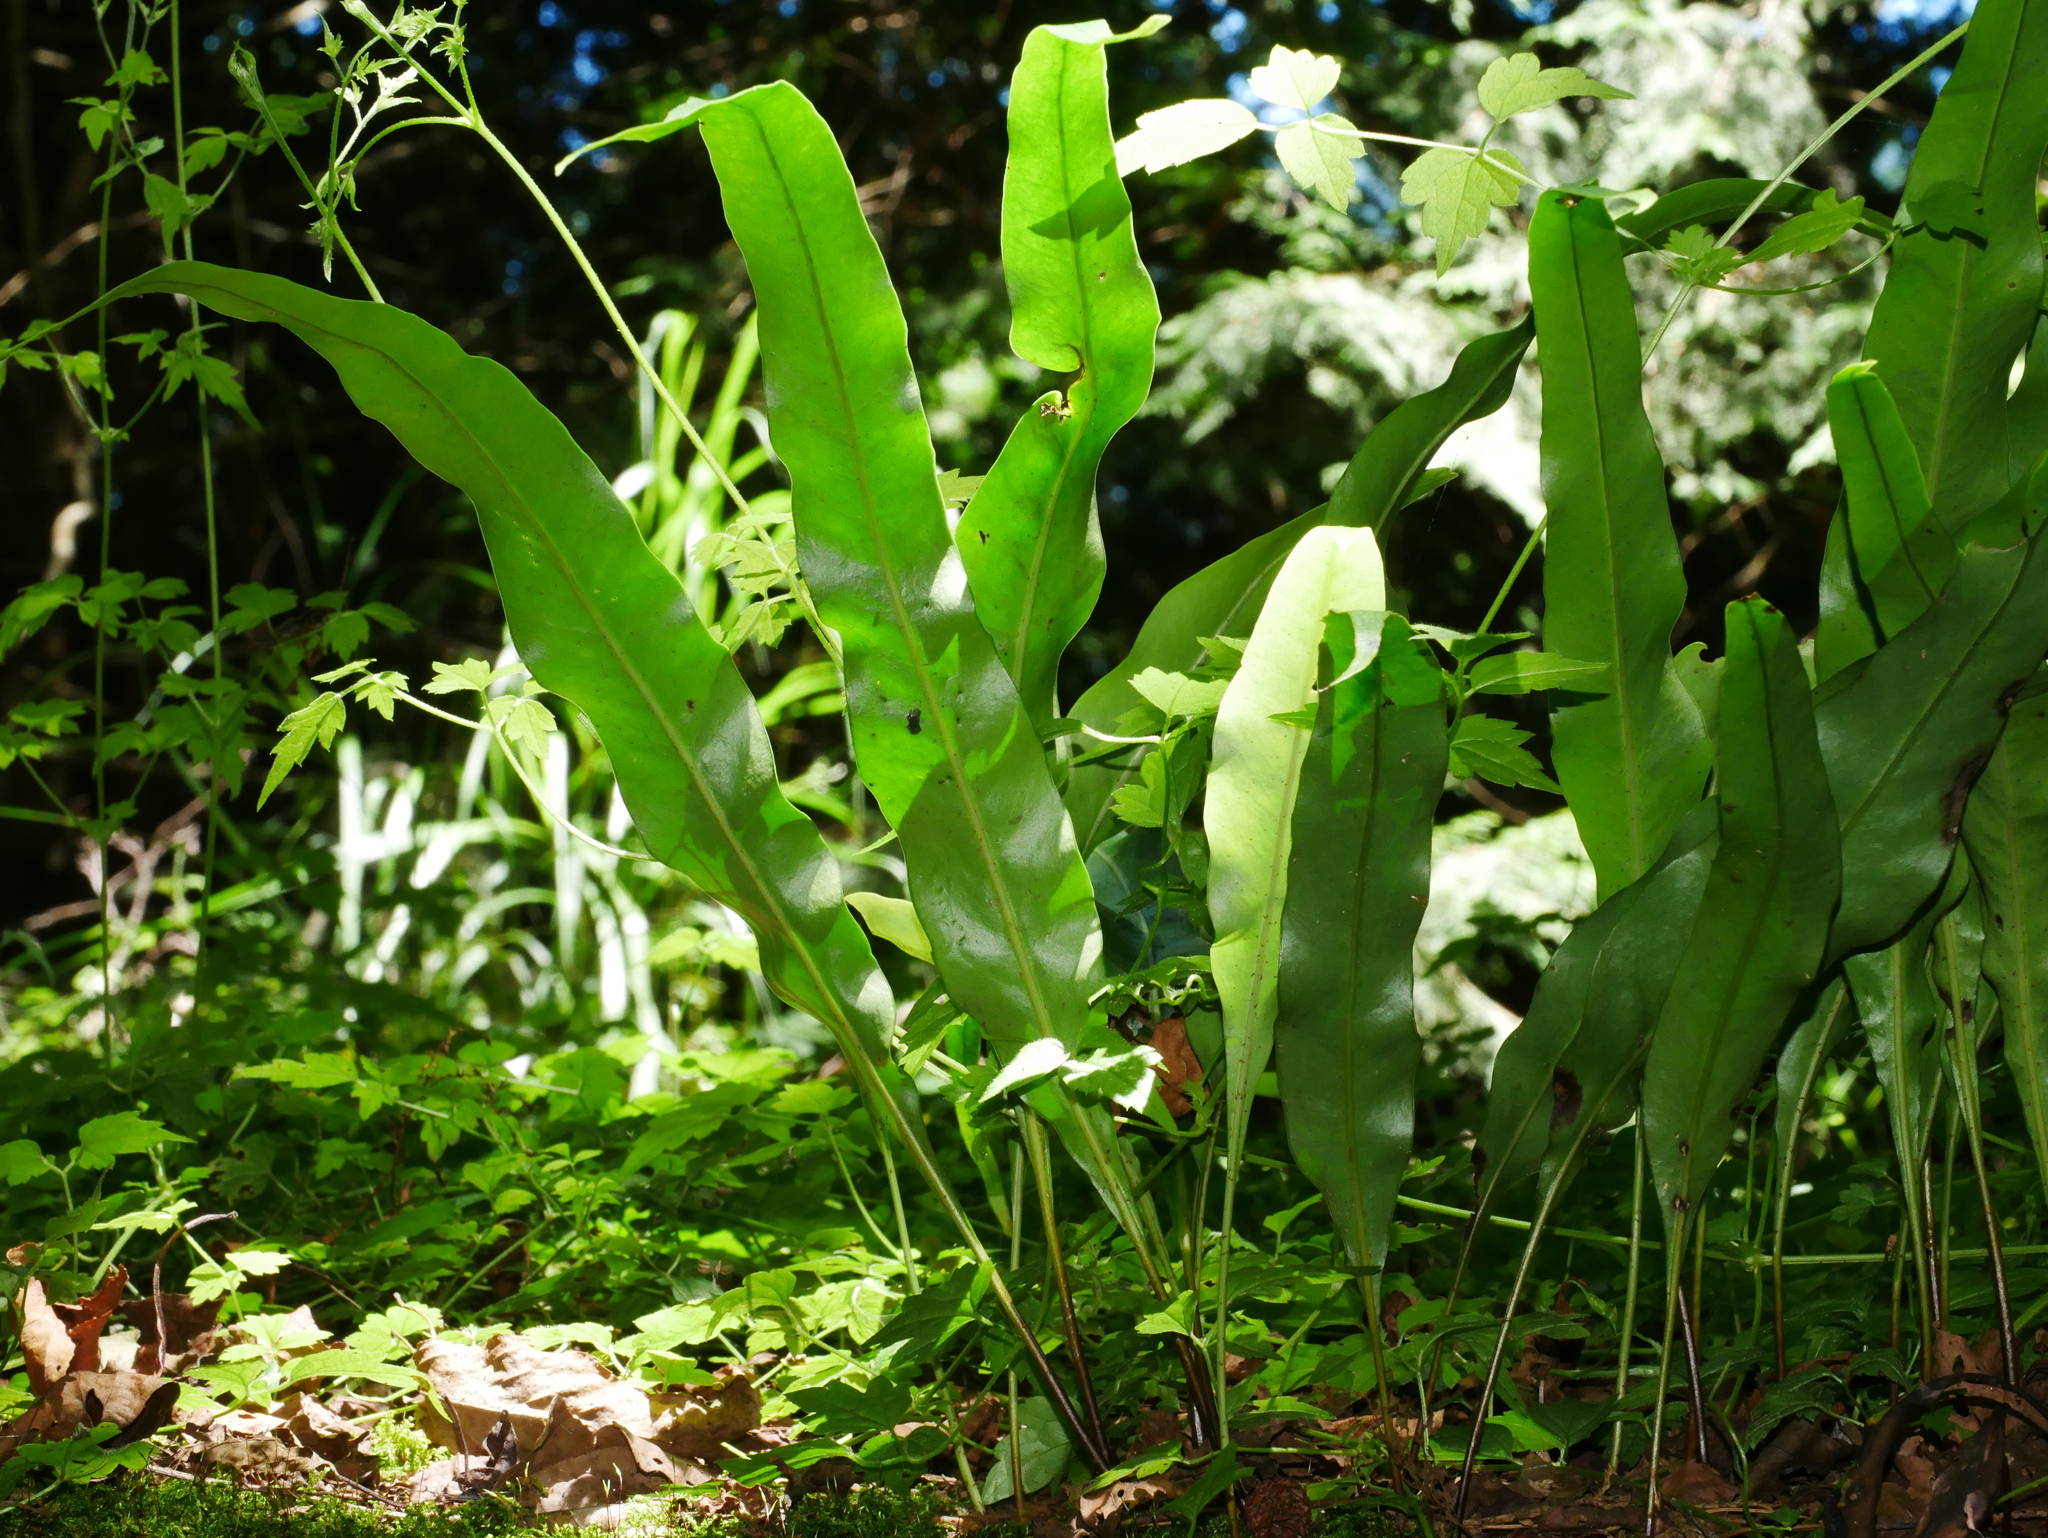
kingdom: Plantae
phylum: Tracheophyta
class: Polypodiopsida
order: Polypodiales
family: Polypodiaceae
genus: Lepisorus
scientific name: Lepisorus fortuni
